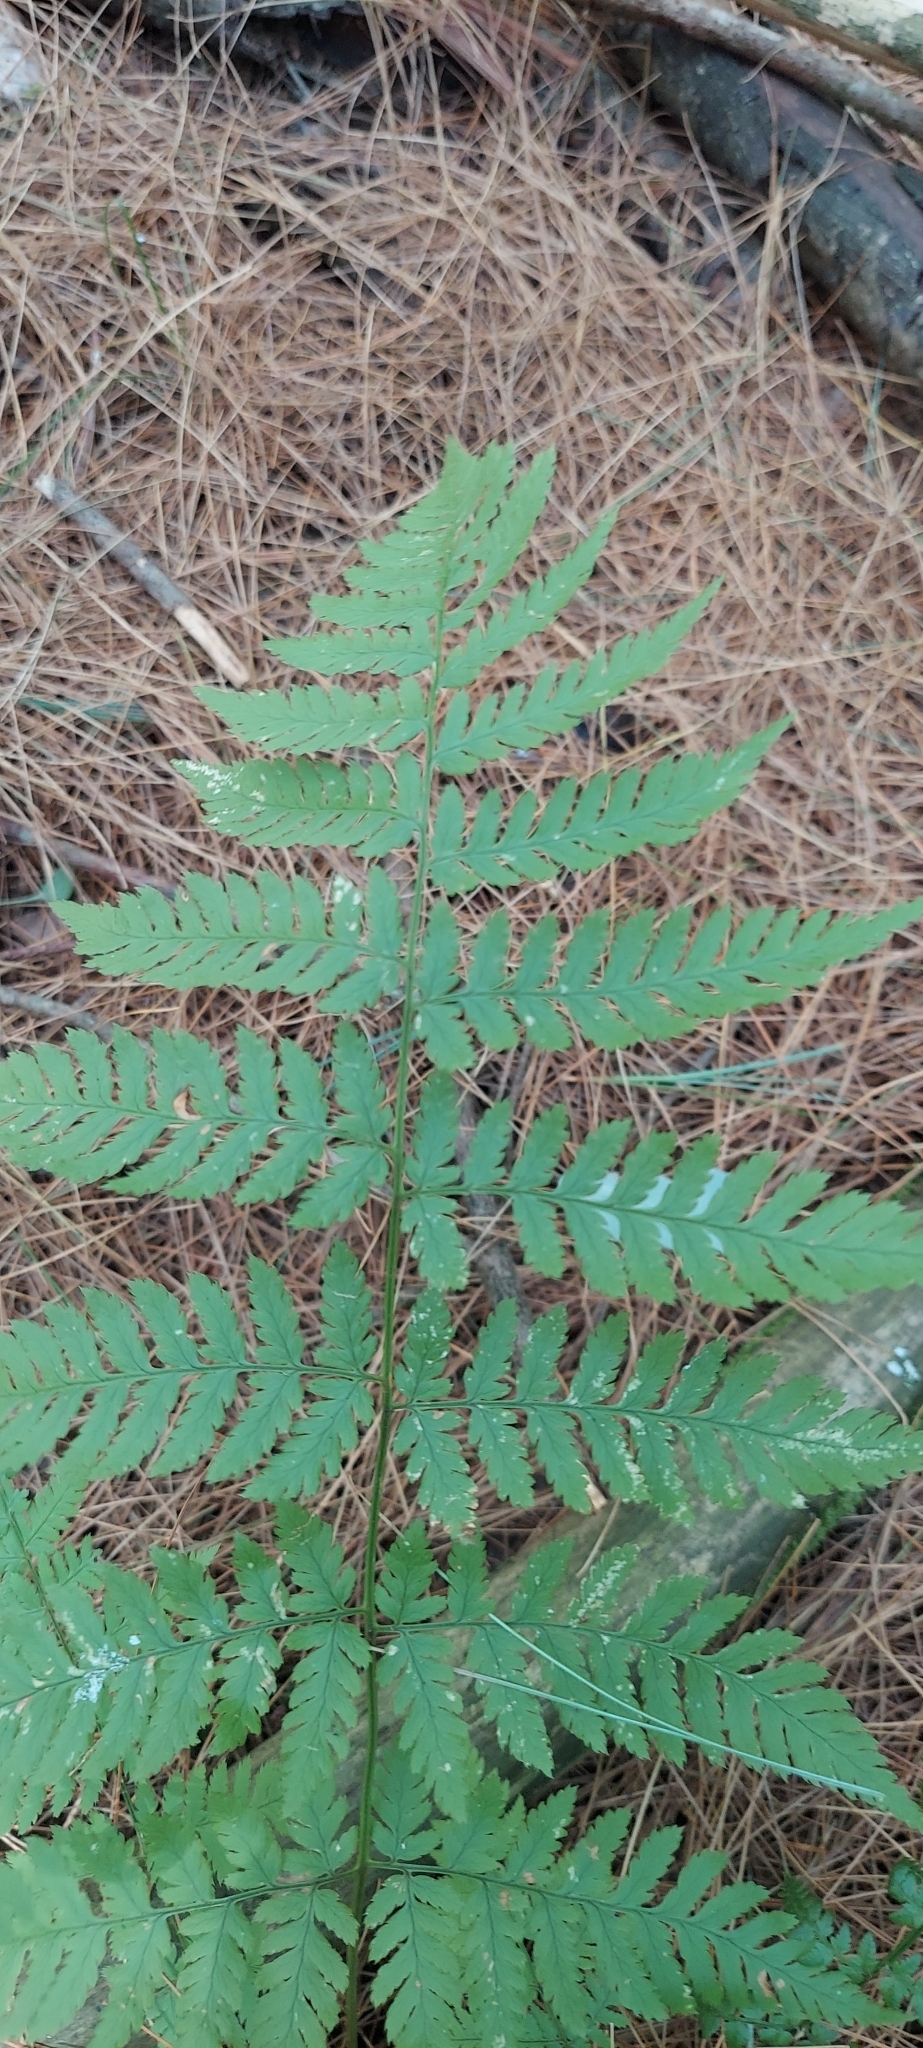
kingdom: Plantae
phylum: Tracheophyta
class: Polypodiopsida
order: Polypodiales
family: Dryopteridaceae
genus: Dryopteris
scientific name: Dryopteris carthusiana
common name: Narrow buckler-fern
